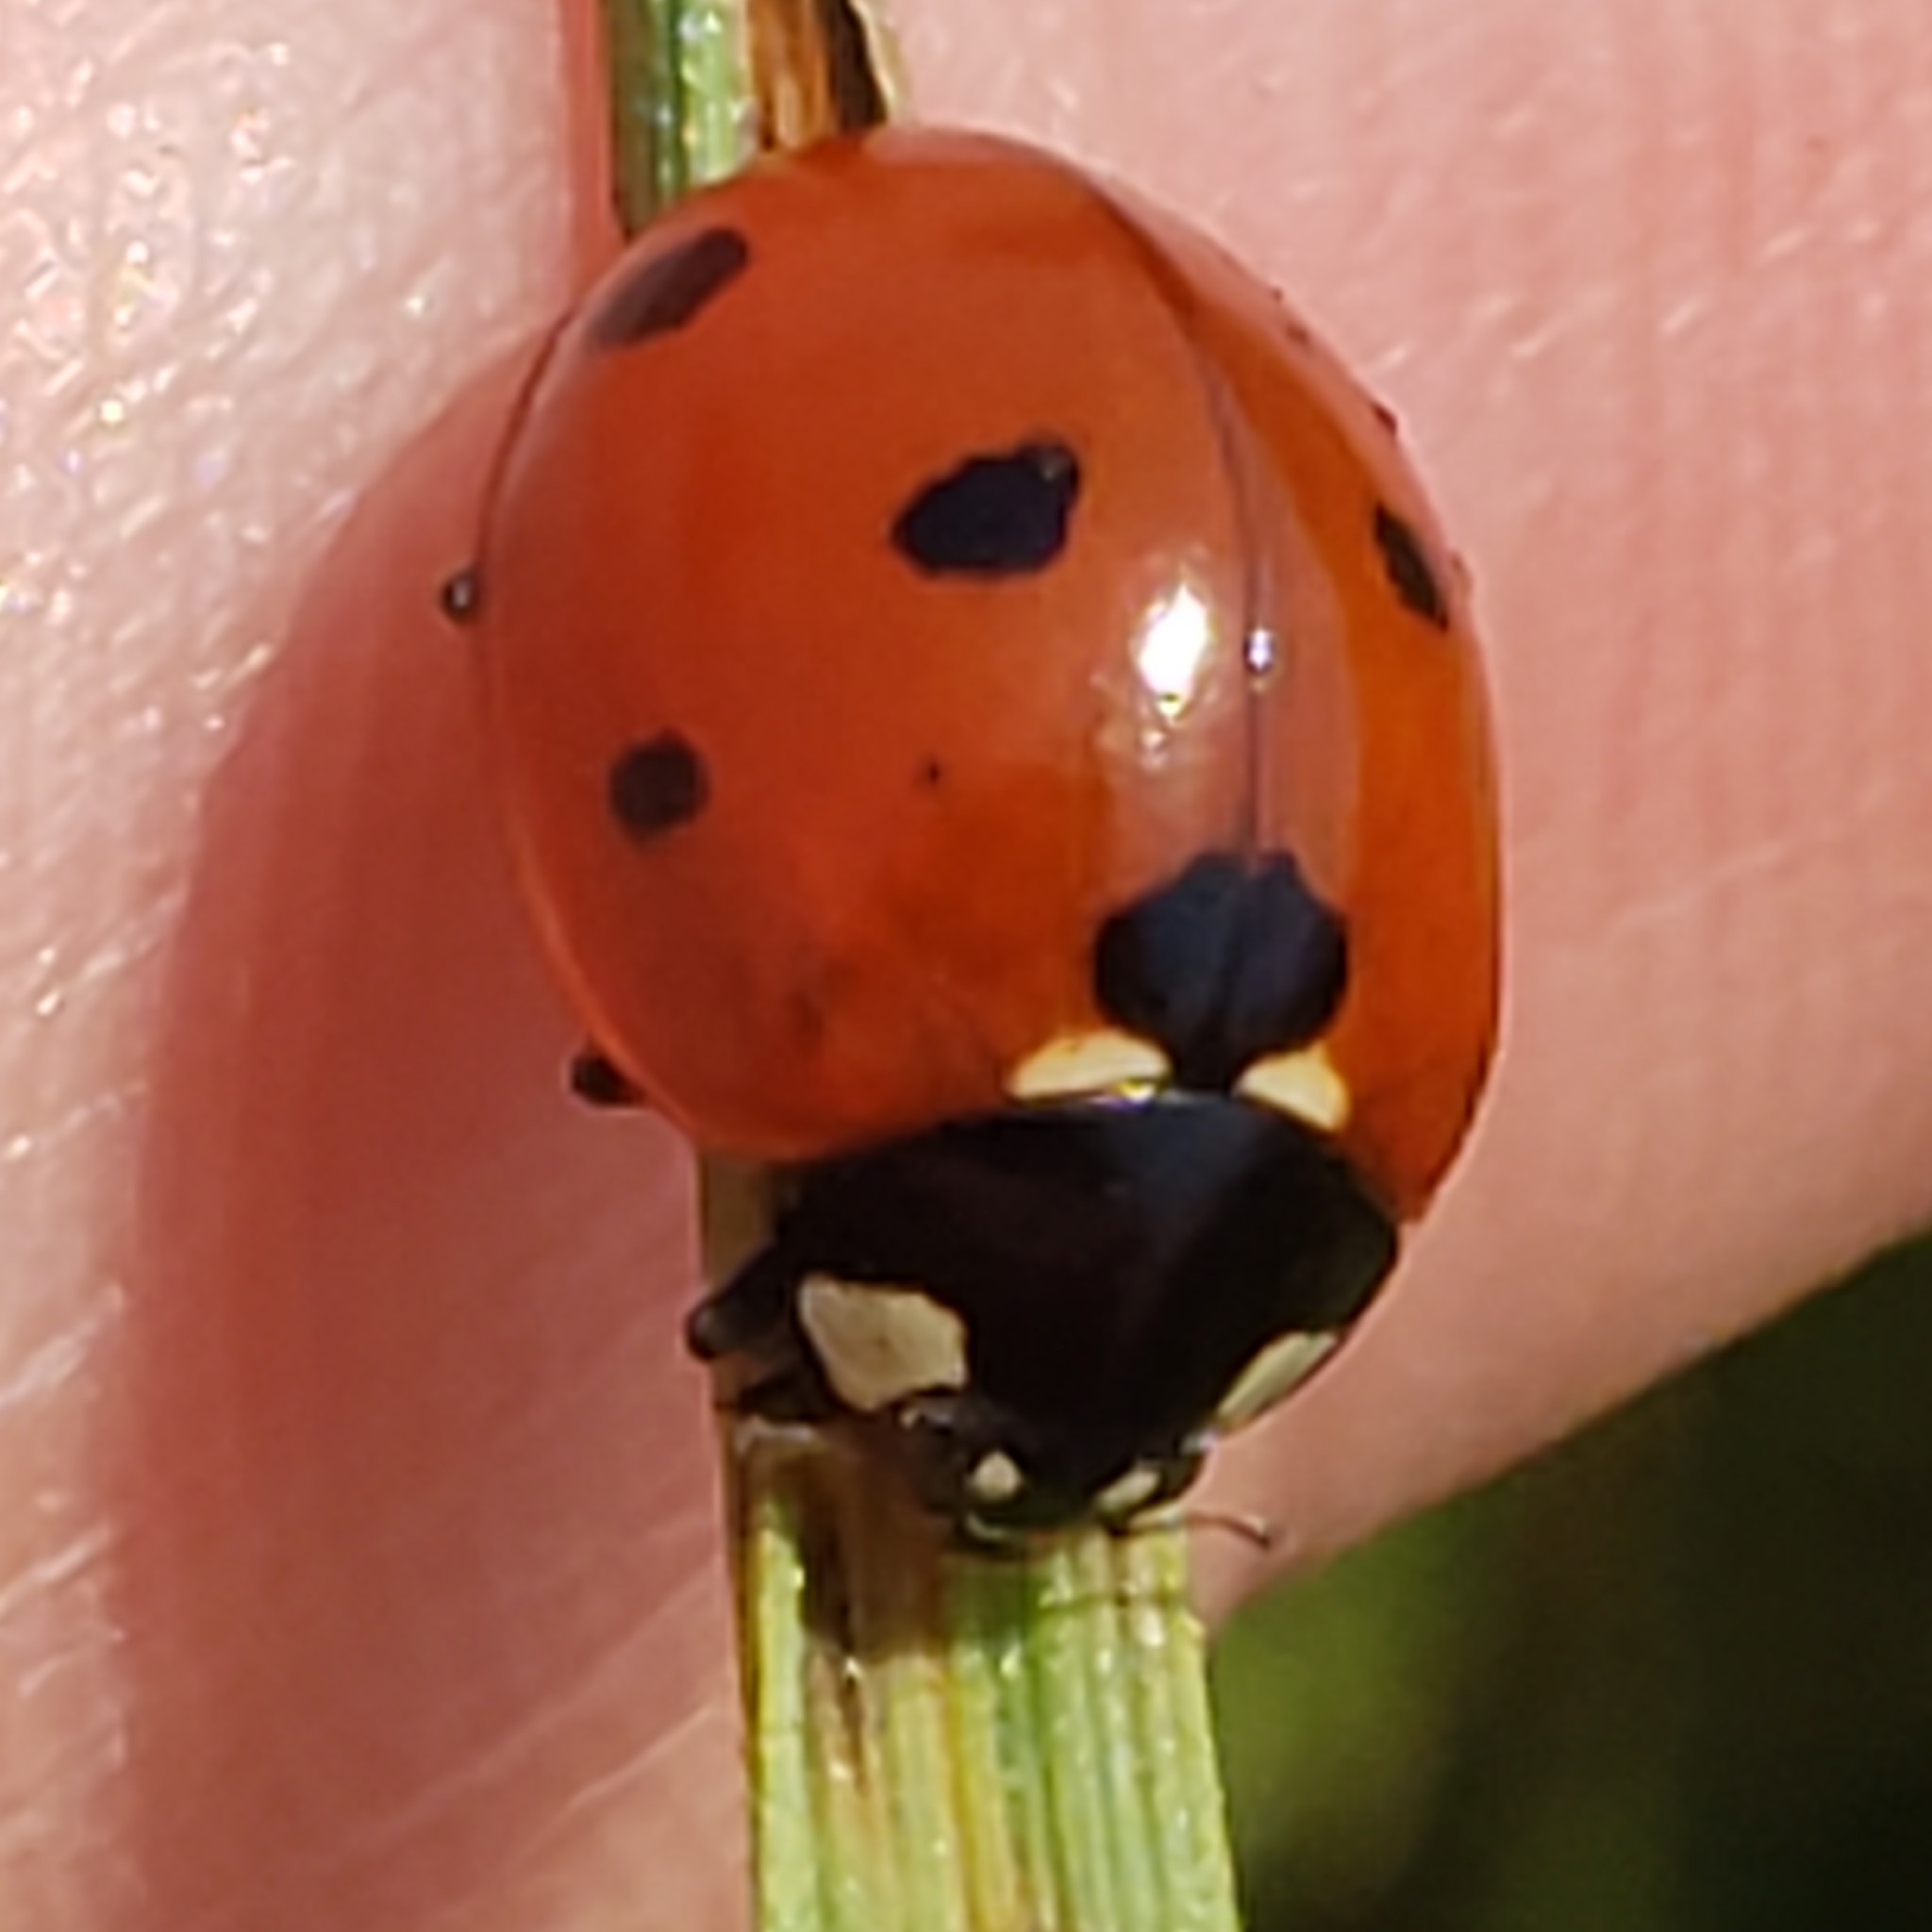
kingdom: Animalia
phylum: Arthropoda
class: Insecta
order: Coleoptera
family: Coccinellidae
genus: Coccinella
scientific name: Coccinella septempunctata
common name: Sevenspotted lady beetle
